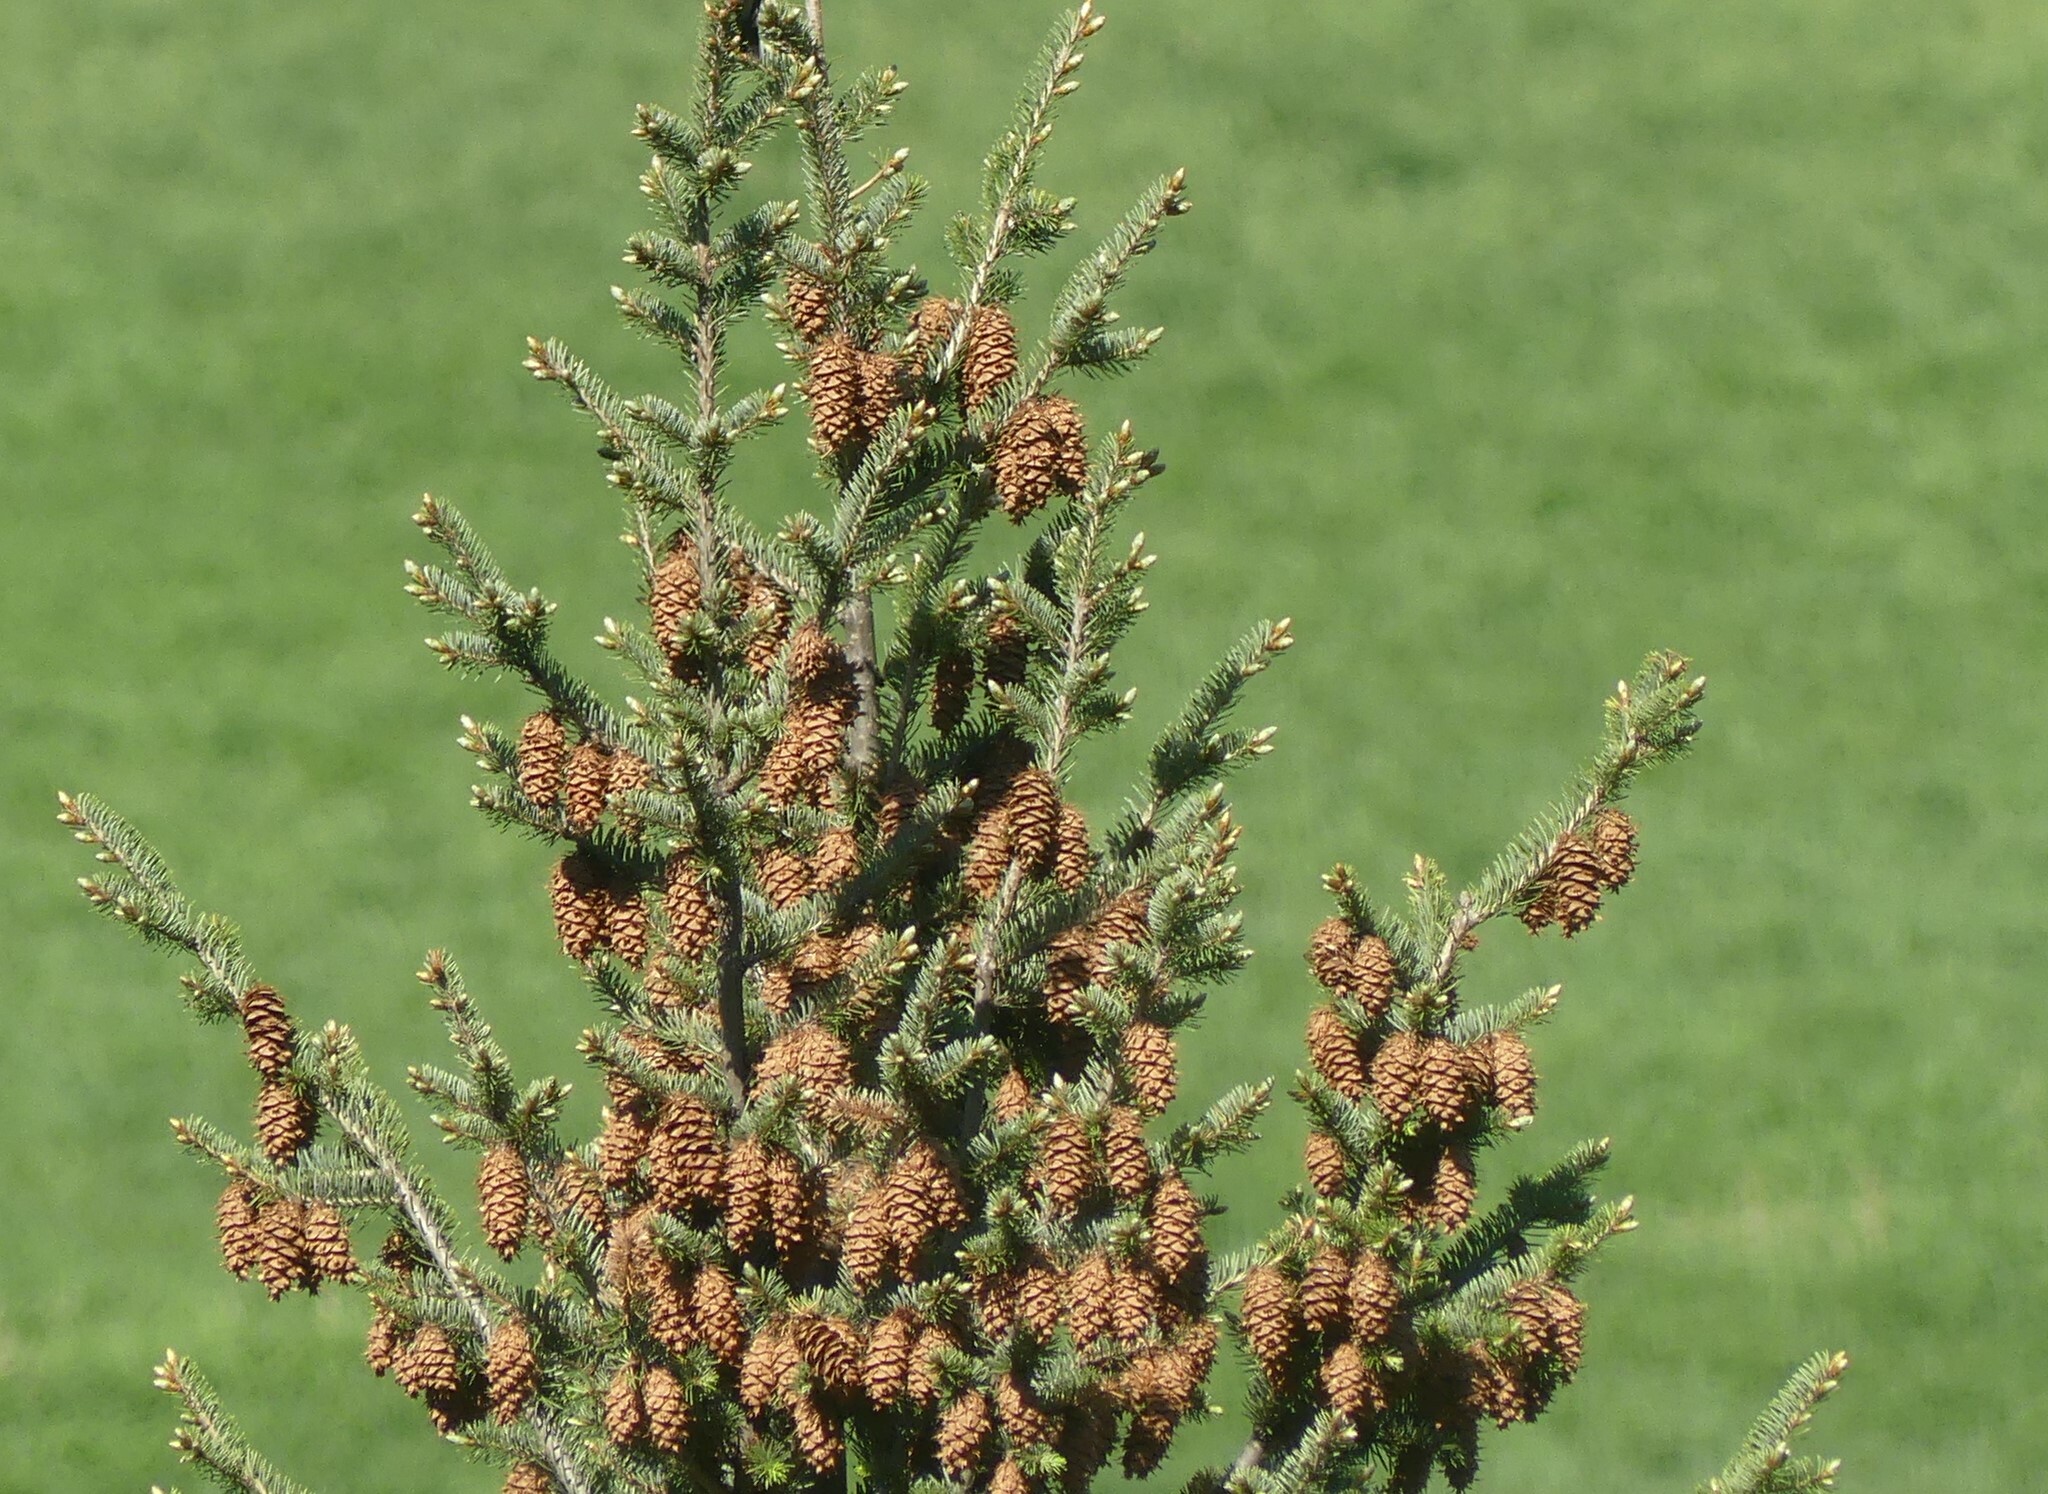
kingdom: Plantae
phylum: Tracheophyta
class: Pinopsida
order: Pinales
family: Pinaceae
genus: Pseudotsuga
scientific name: Pseudotsuga menziesii
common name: Douglas fir
